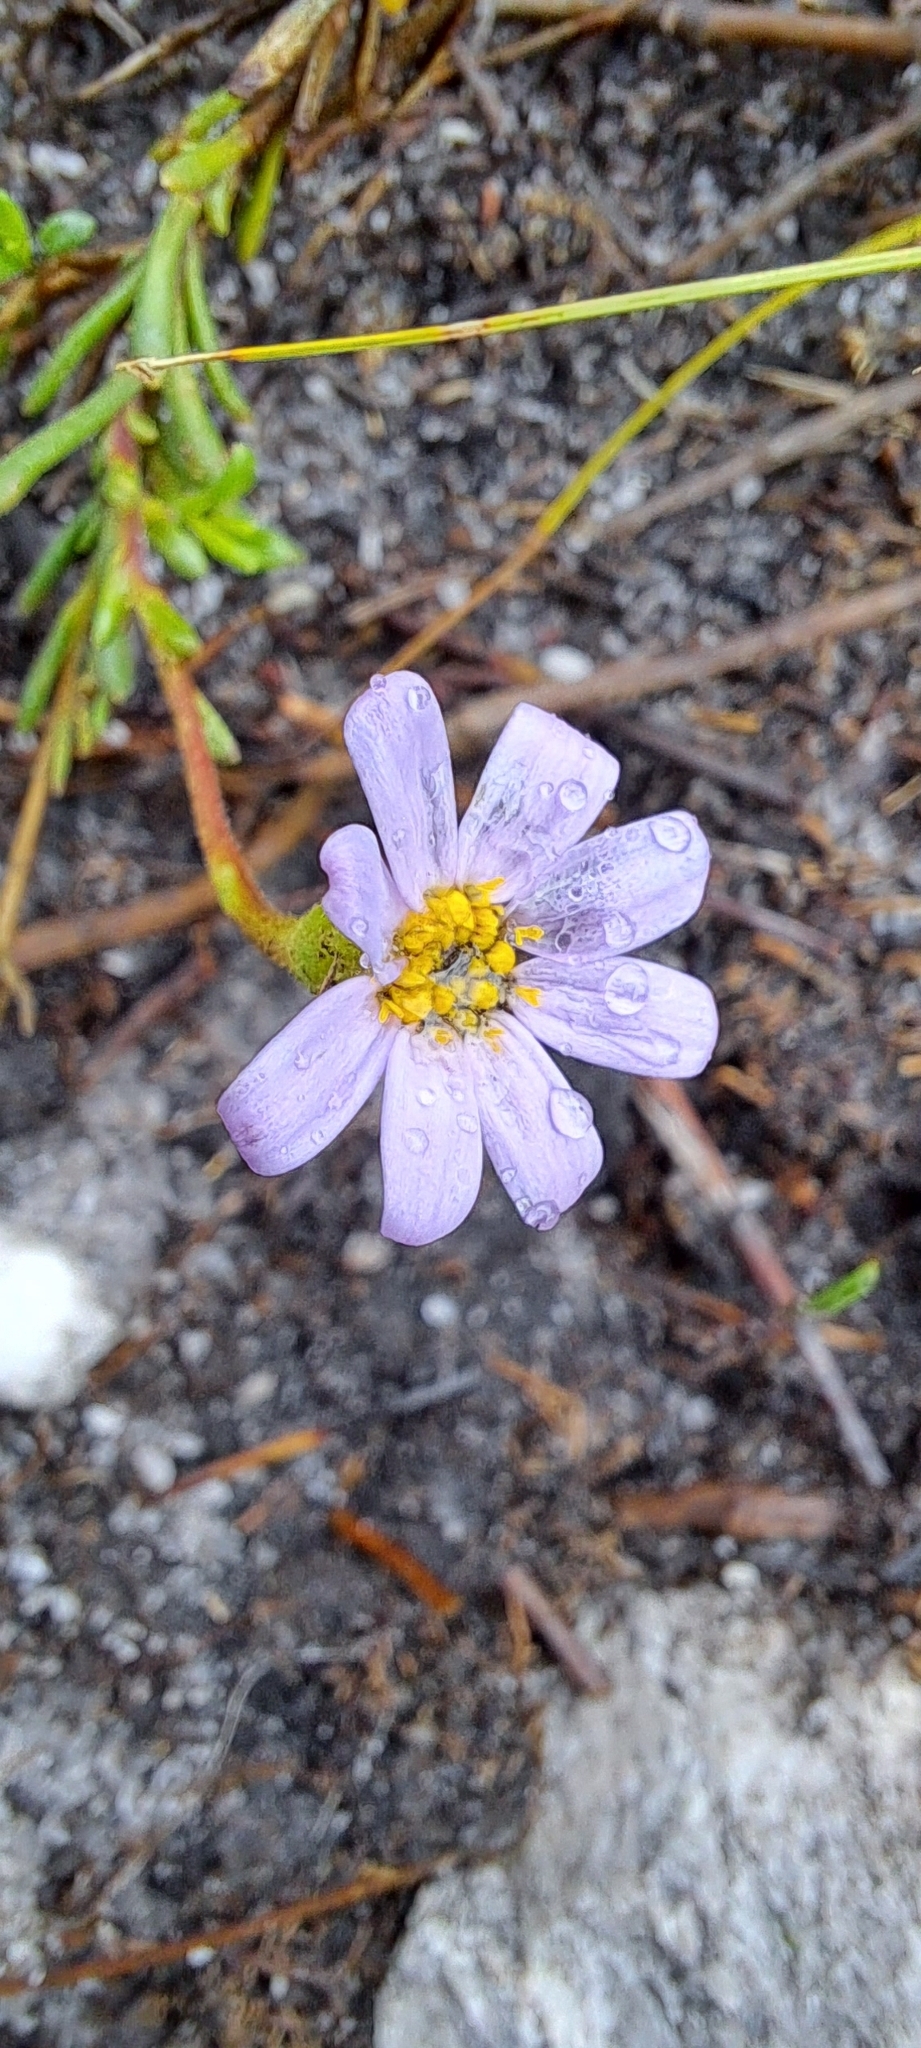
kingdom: Plantae
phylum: Tracheophyta
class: Magnoliopsida
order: Asterales
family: Asteraceae
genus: Zyrphelis
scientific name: Zyrphelis foliosa
